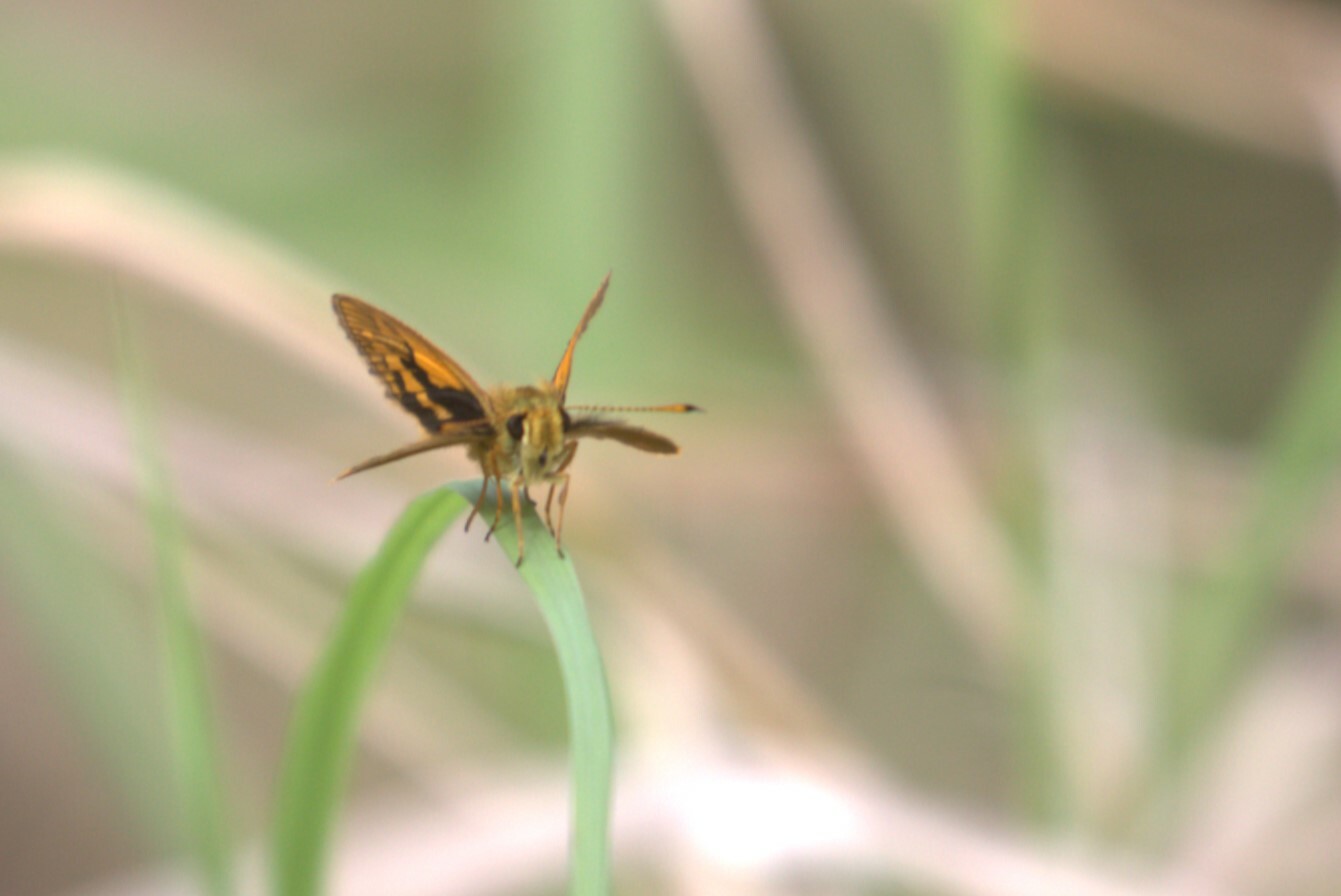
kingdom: Animalia
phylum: Arthropoda
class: Insecta
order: Lepidoptera
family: Hesperiidae
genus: Suniana
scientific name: Suniana sunias
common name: Wide-brand grass-dart
